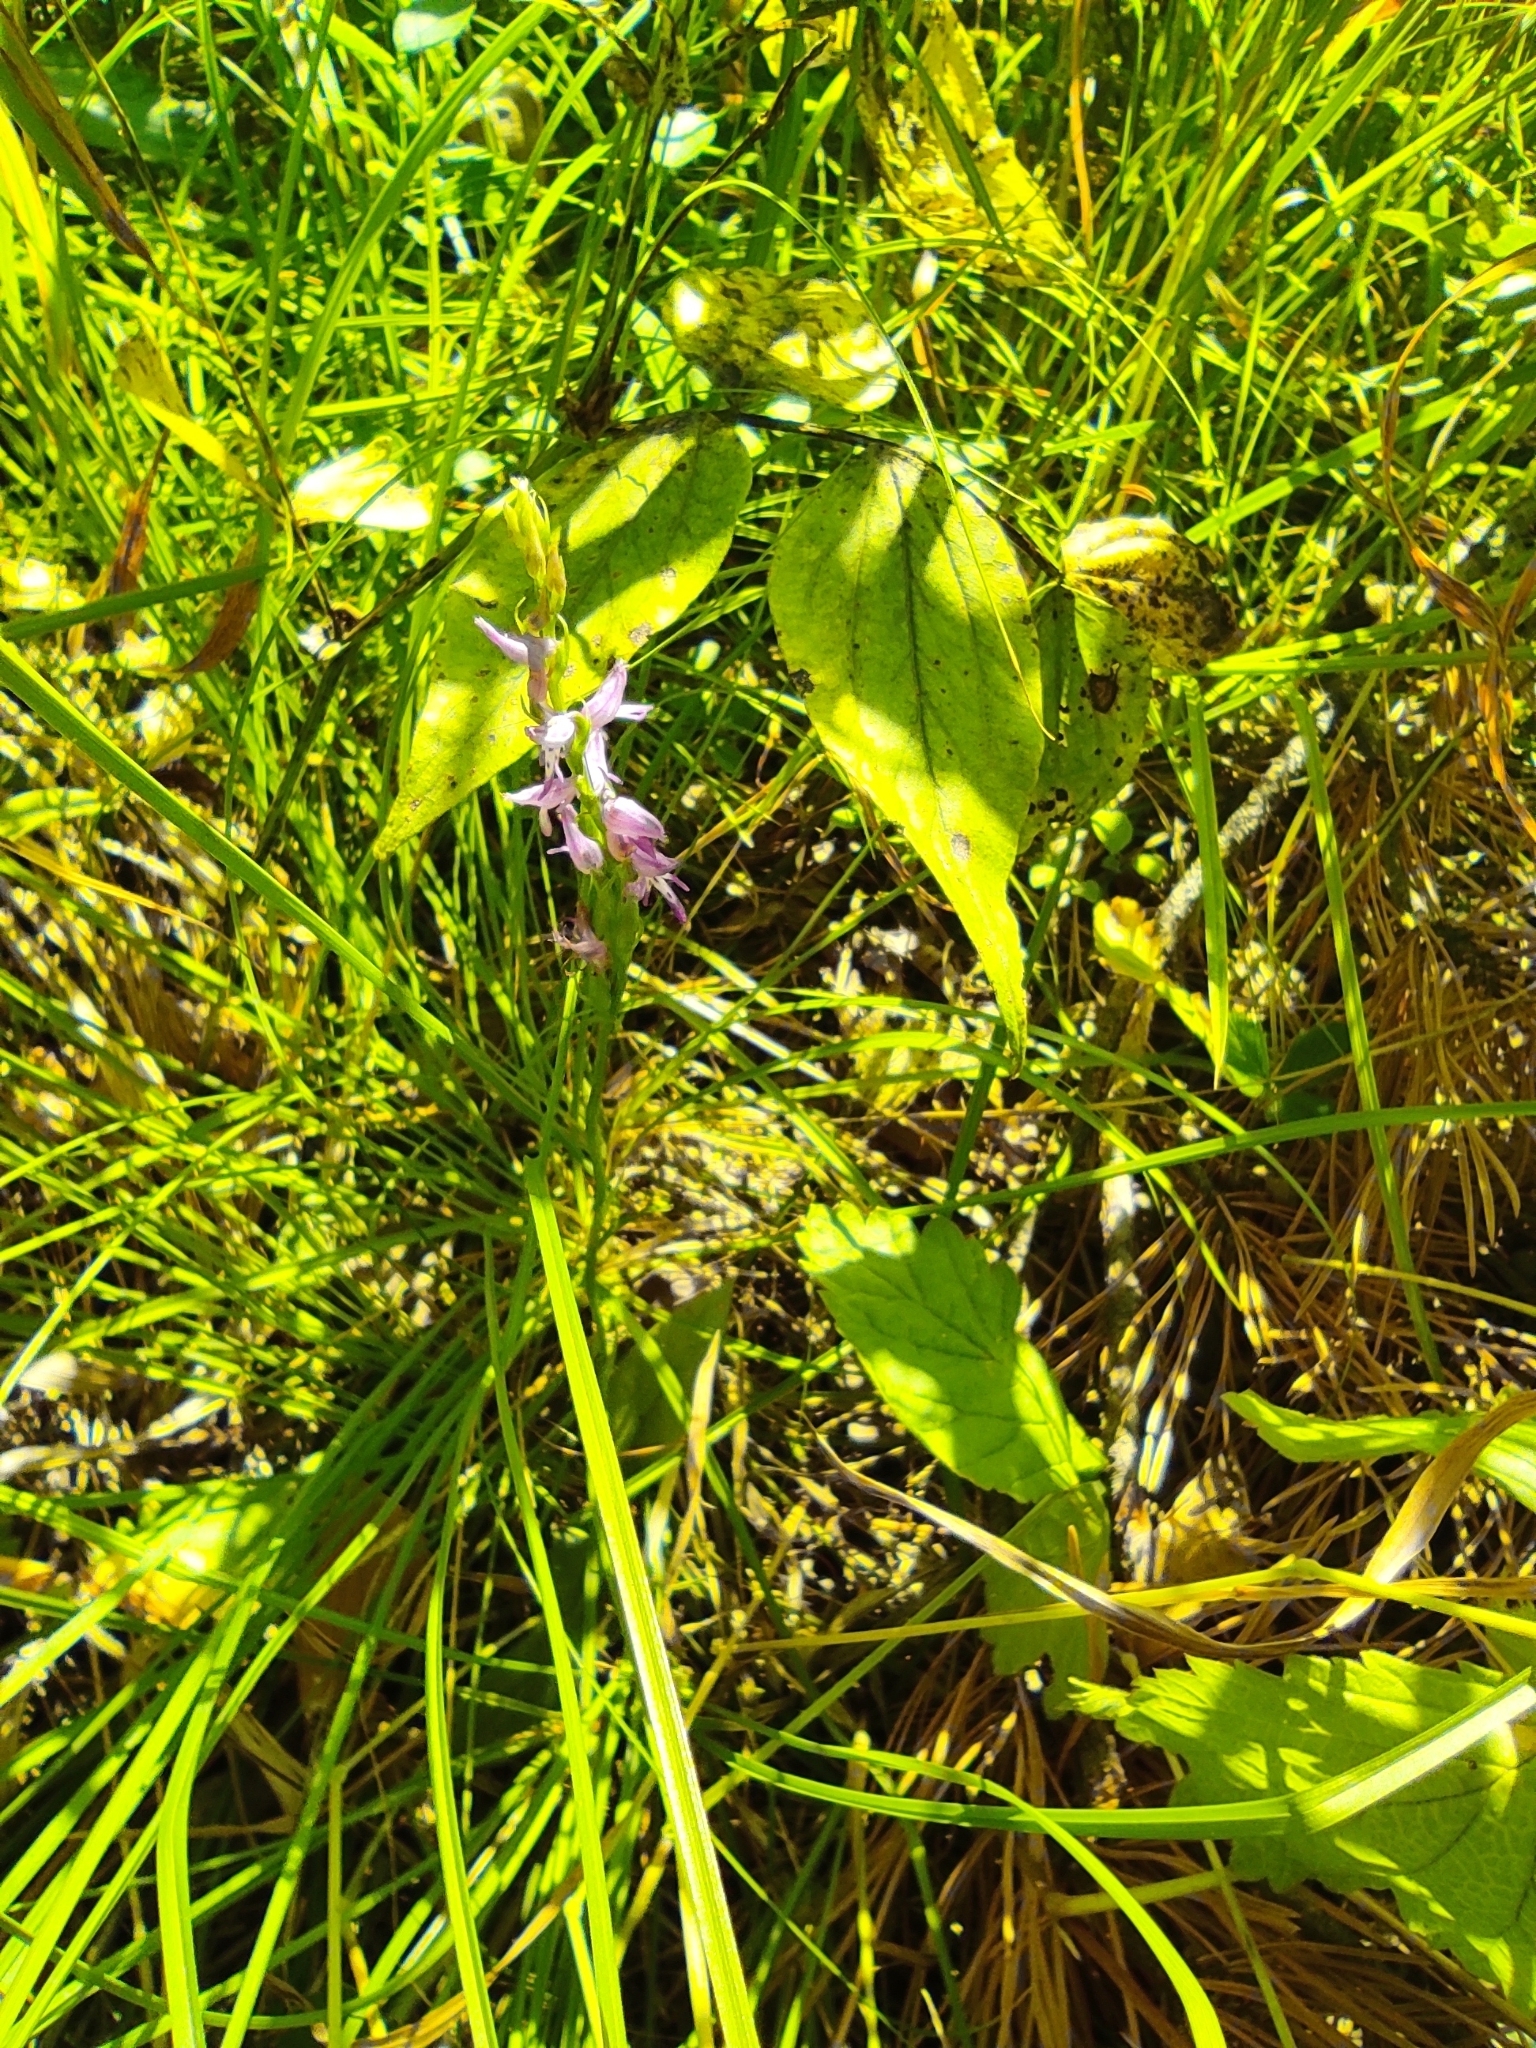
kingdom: Plantae
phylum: Tracheophyta
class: Liliopsida
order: Asparagales
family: Orchidaceae
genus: Hemipilia
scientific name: Hemipilia cucullata
